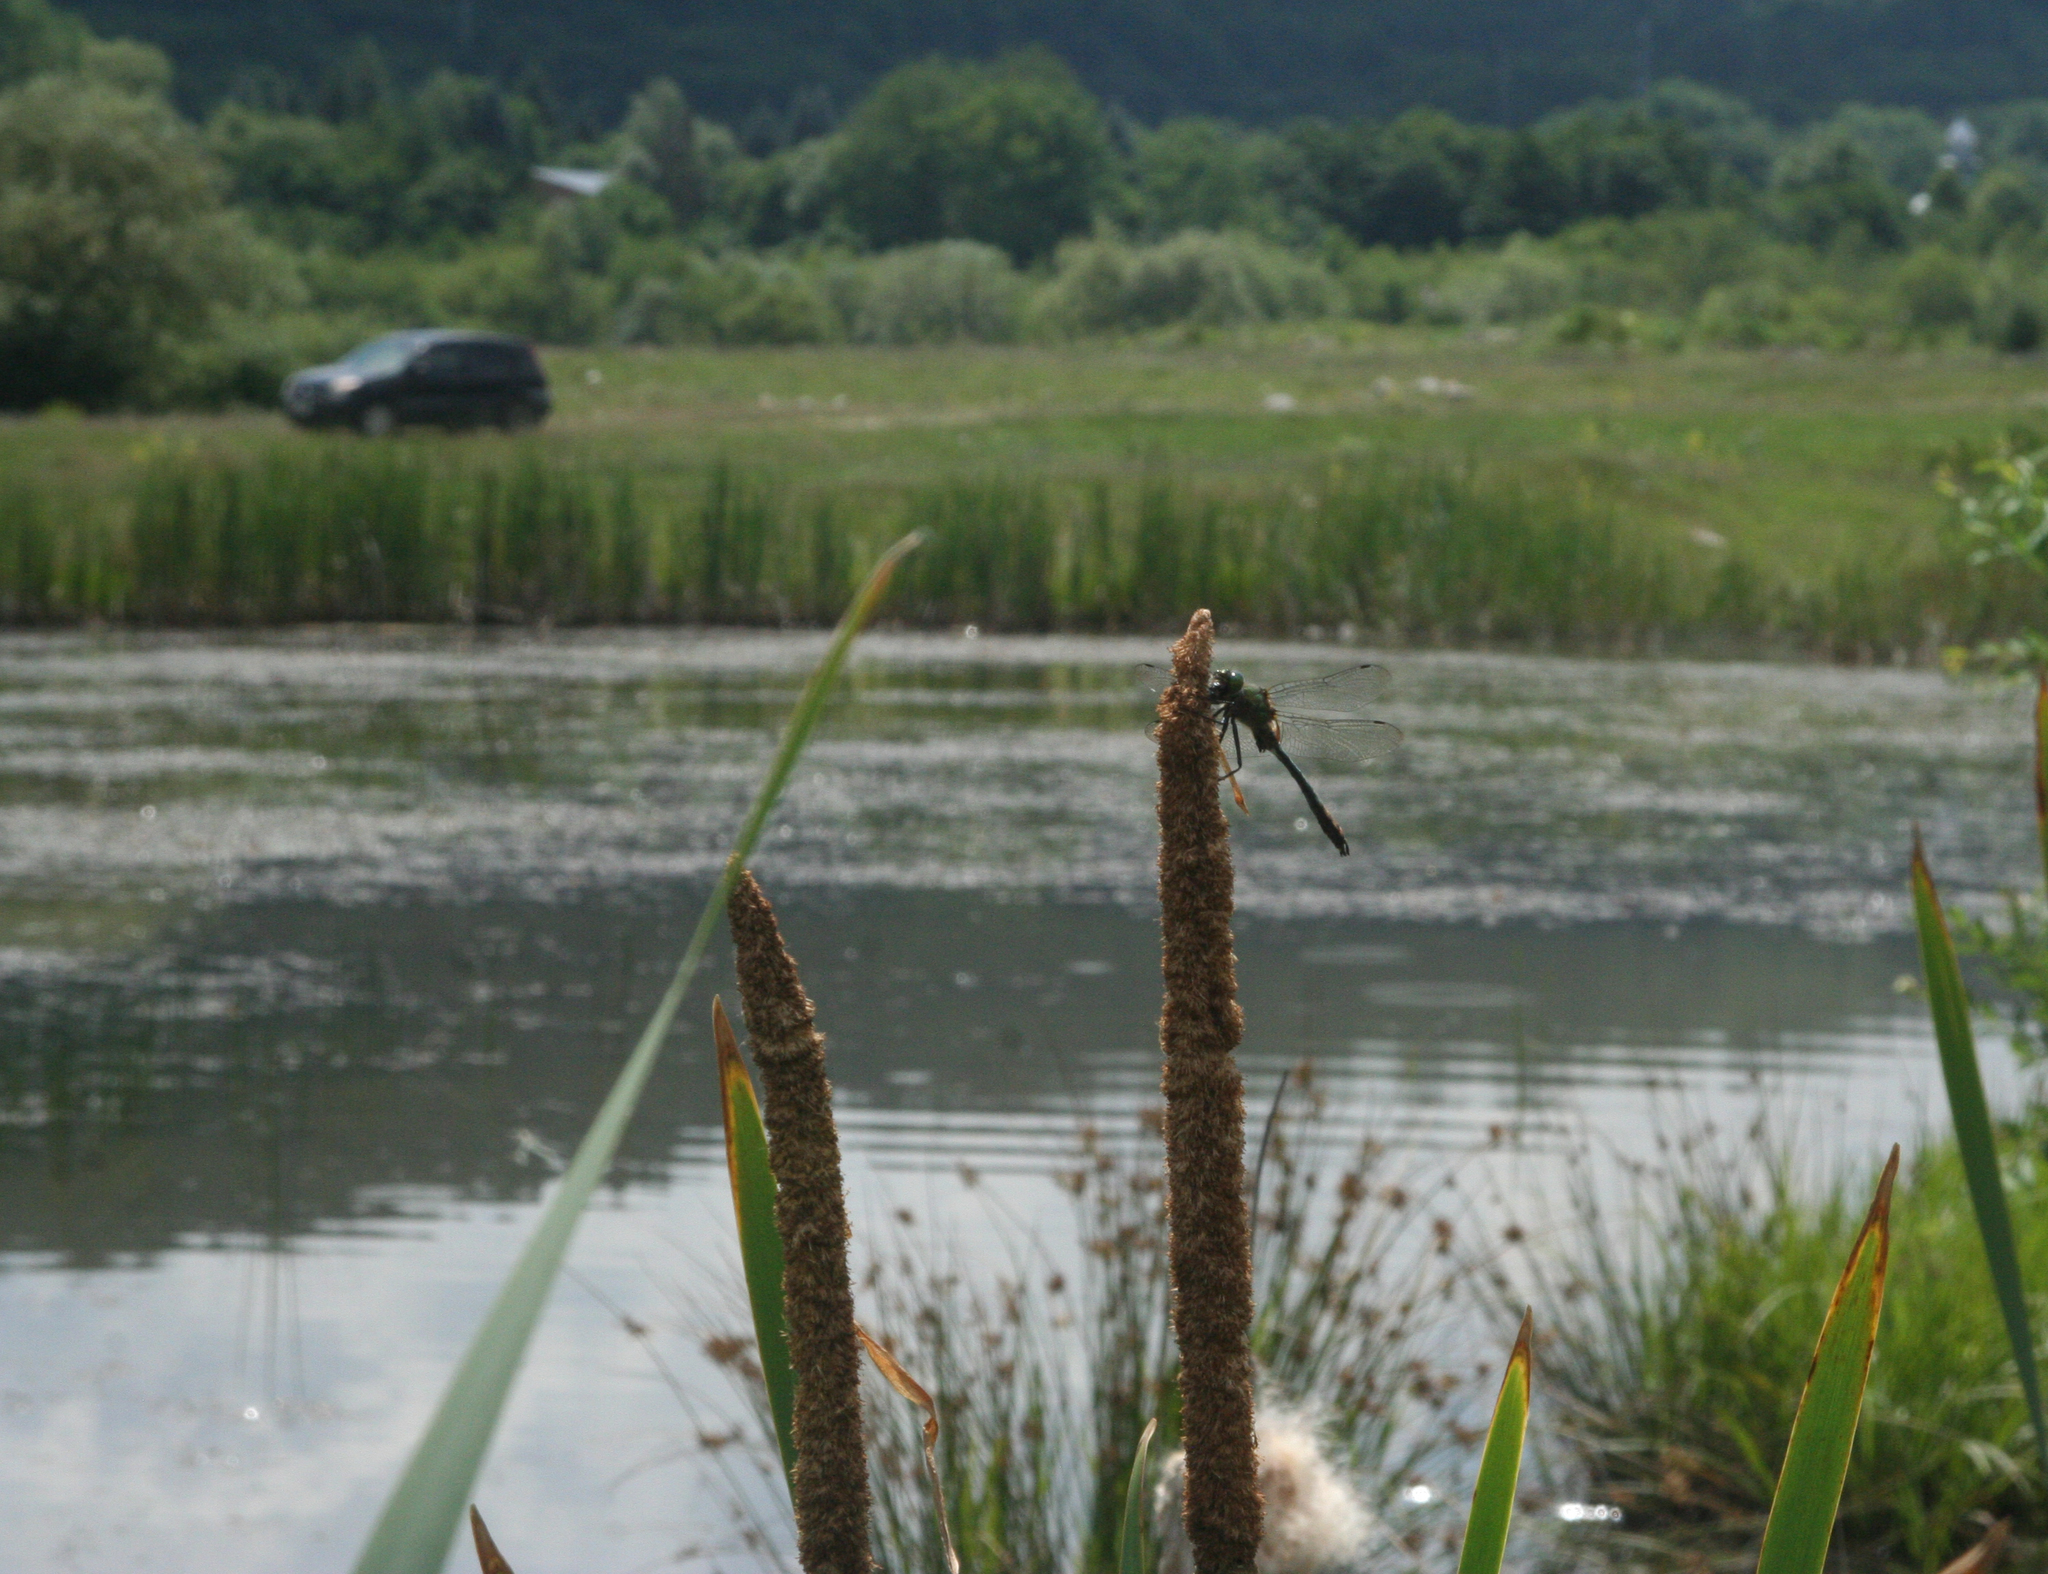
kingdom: Plantae
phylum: Tracheophyta
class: Liliopsida
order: Poales
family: Typhaceae
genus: Typha
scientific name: Typha latifolia
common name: Broadleaf cattail
